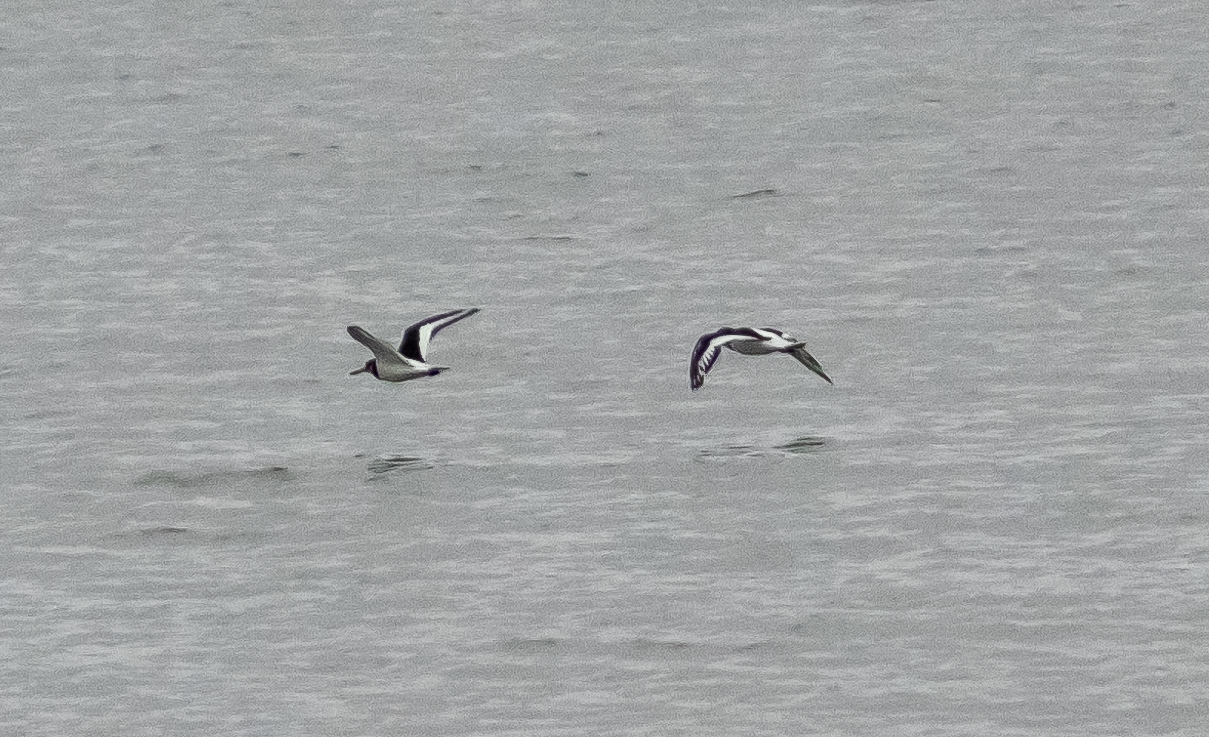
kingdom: Animalia
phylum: Chordata
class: Aves
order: Charadriiformes
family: Haematopodidae
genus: Haematopus
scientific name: Haematopus ostralegus
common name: Eurasian oystercatcher
